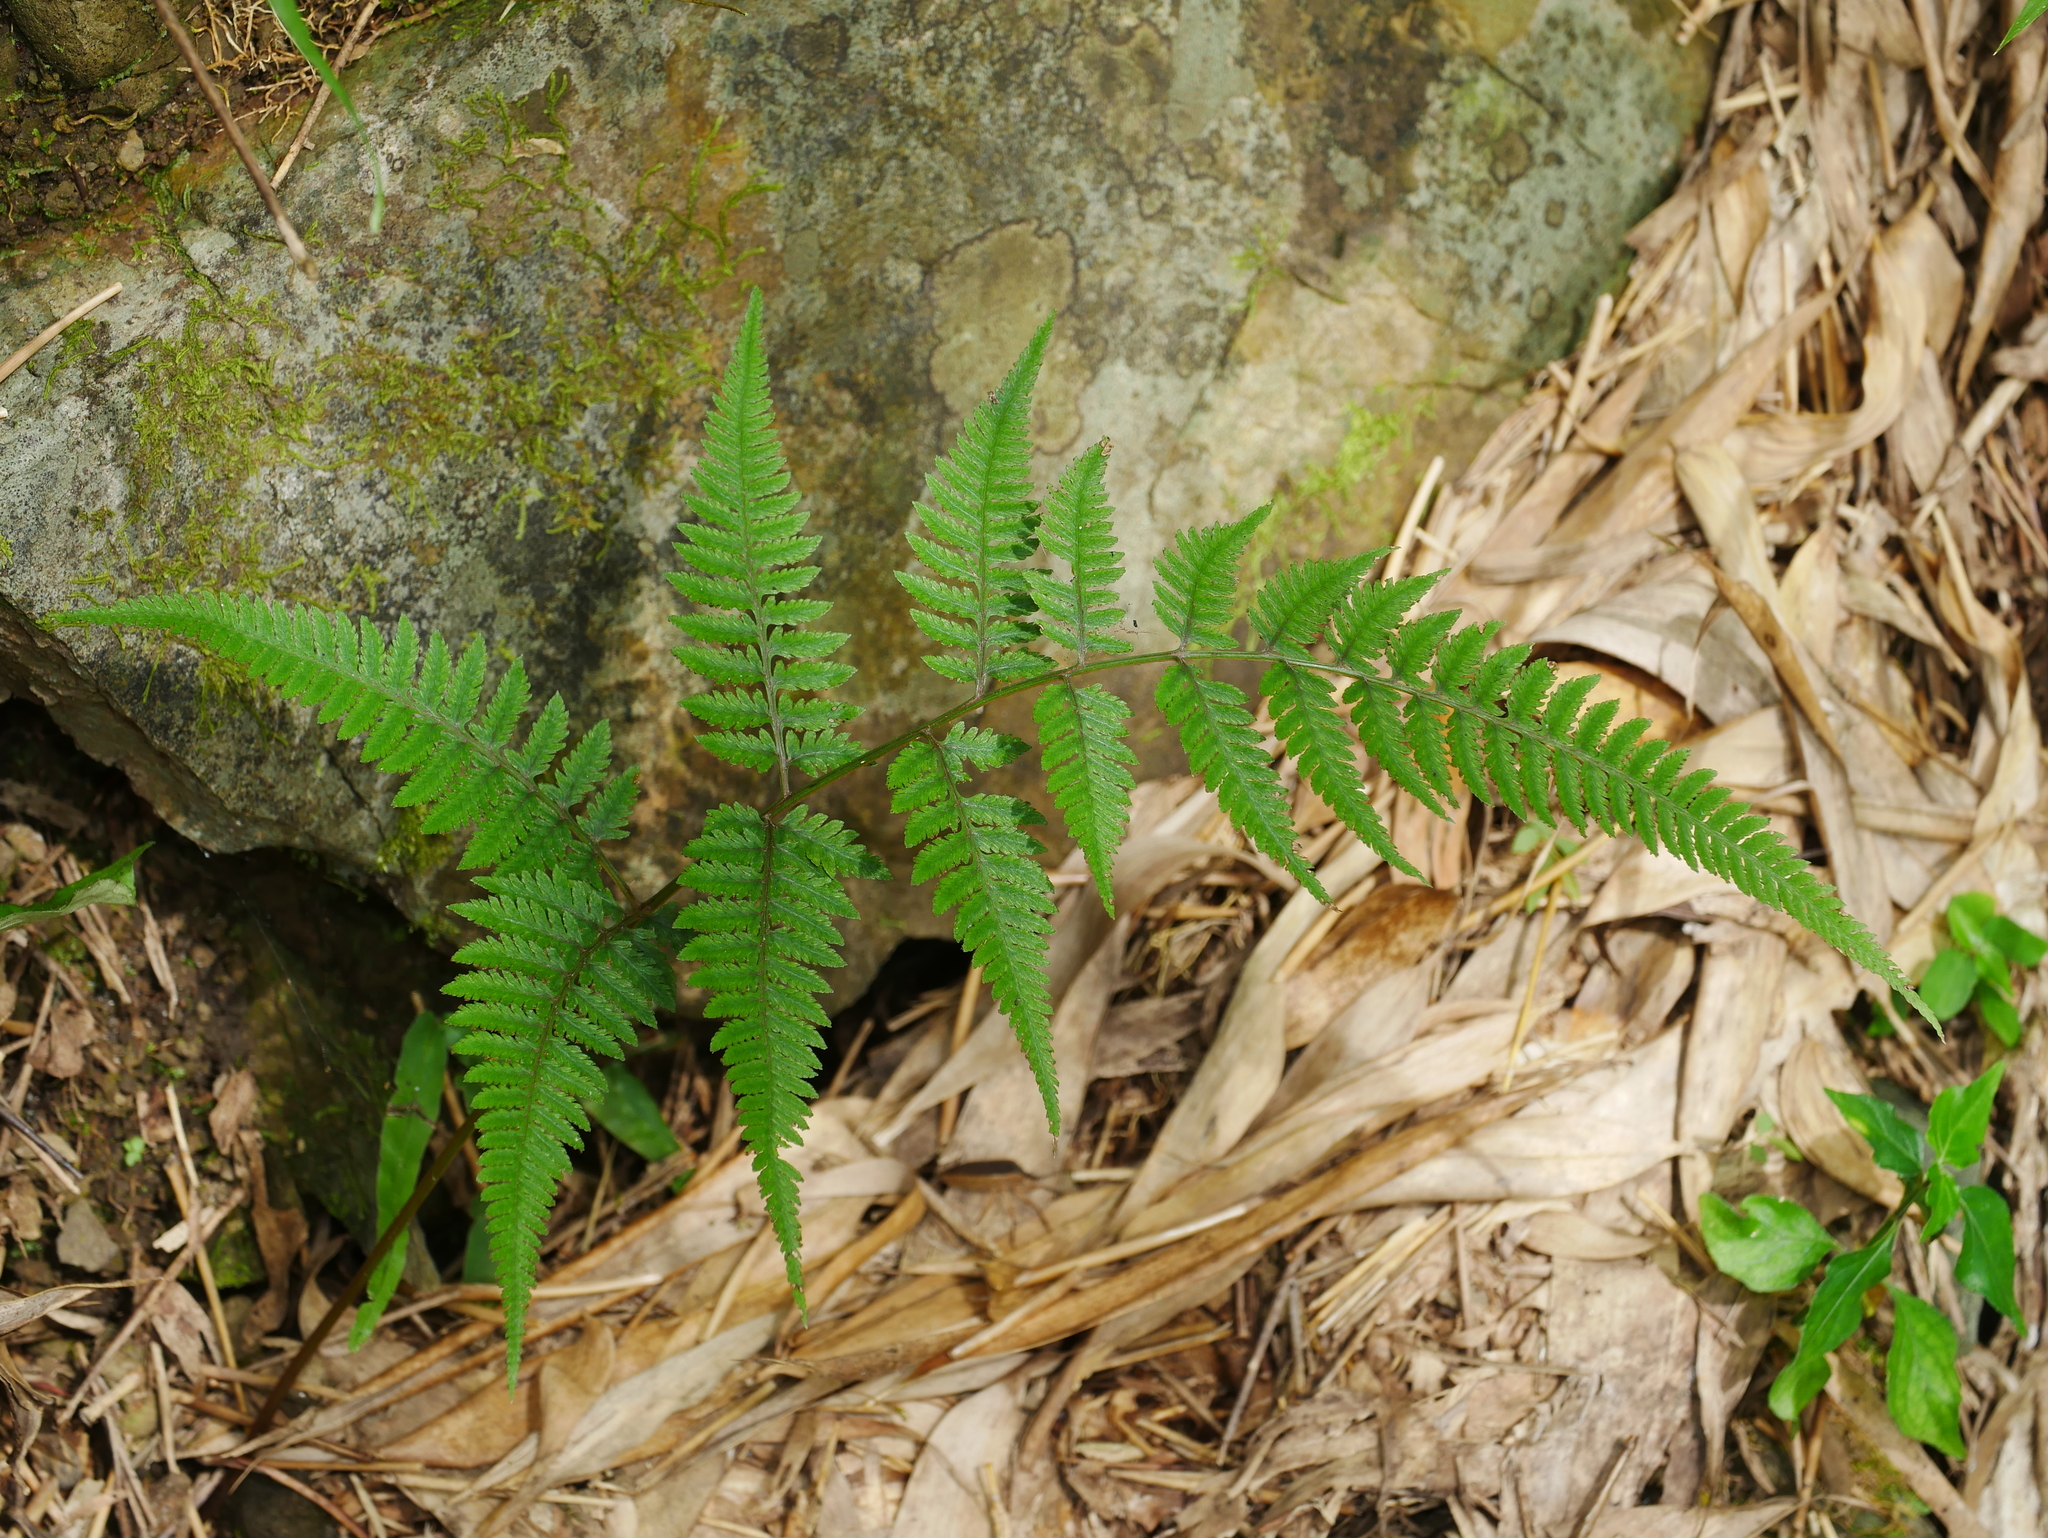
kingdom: Plantae
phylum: Tracheophyta
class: Polypodiopsida
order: Polypodiales
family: Athyriaceae
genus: Anisocampium
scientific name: Anisocampium niponicum
